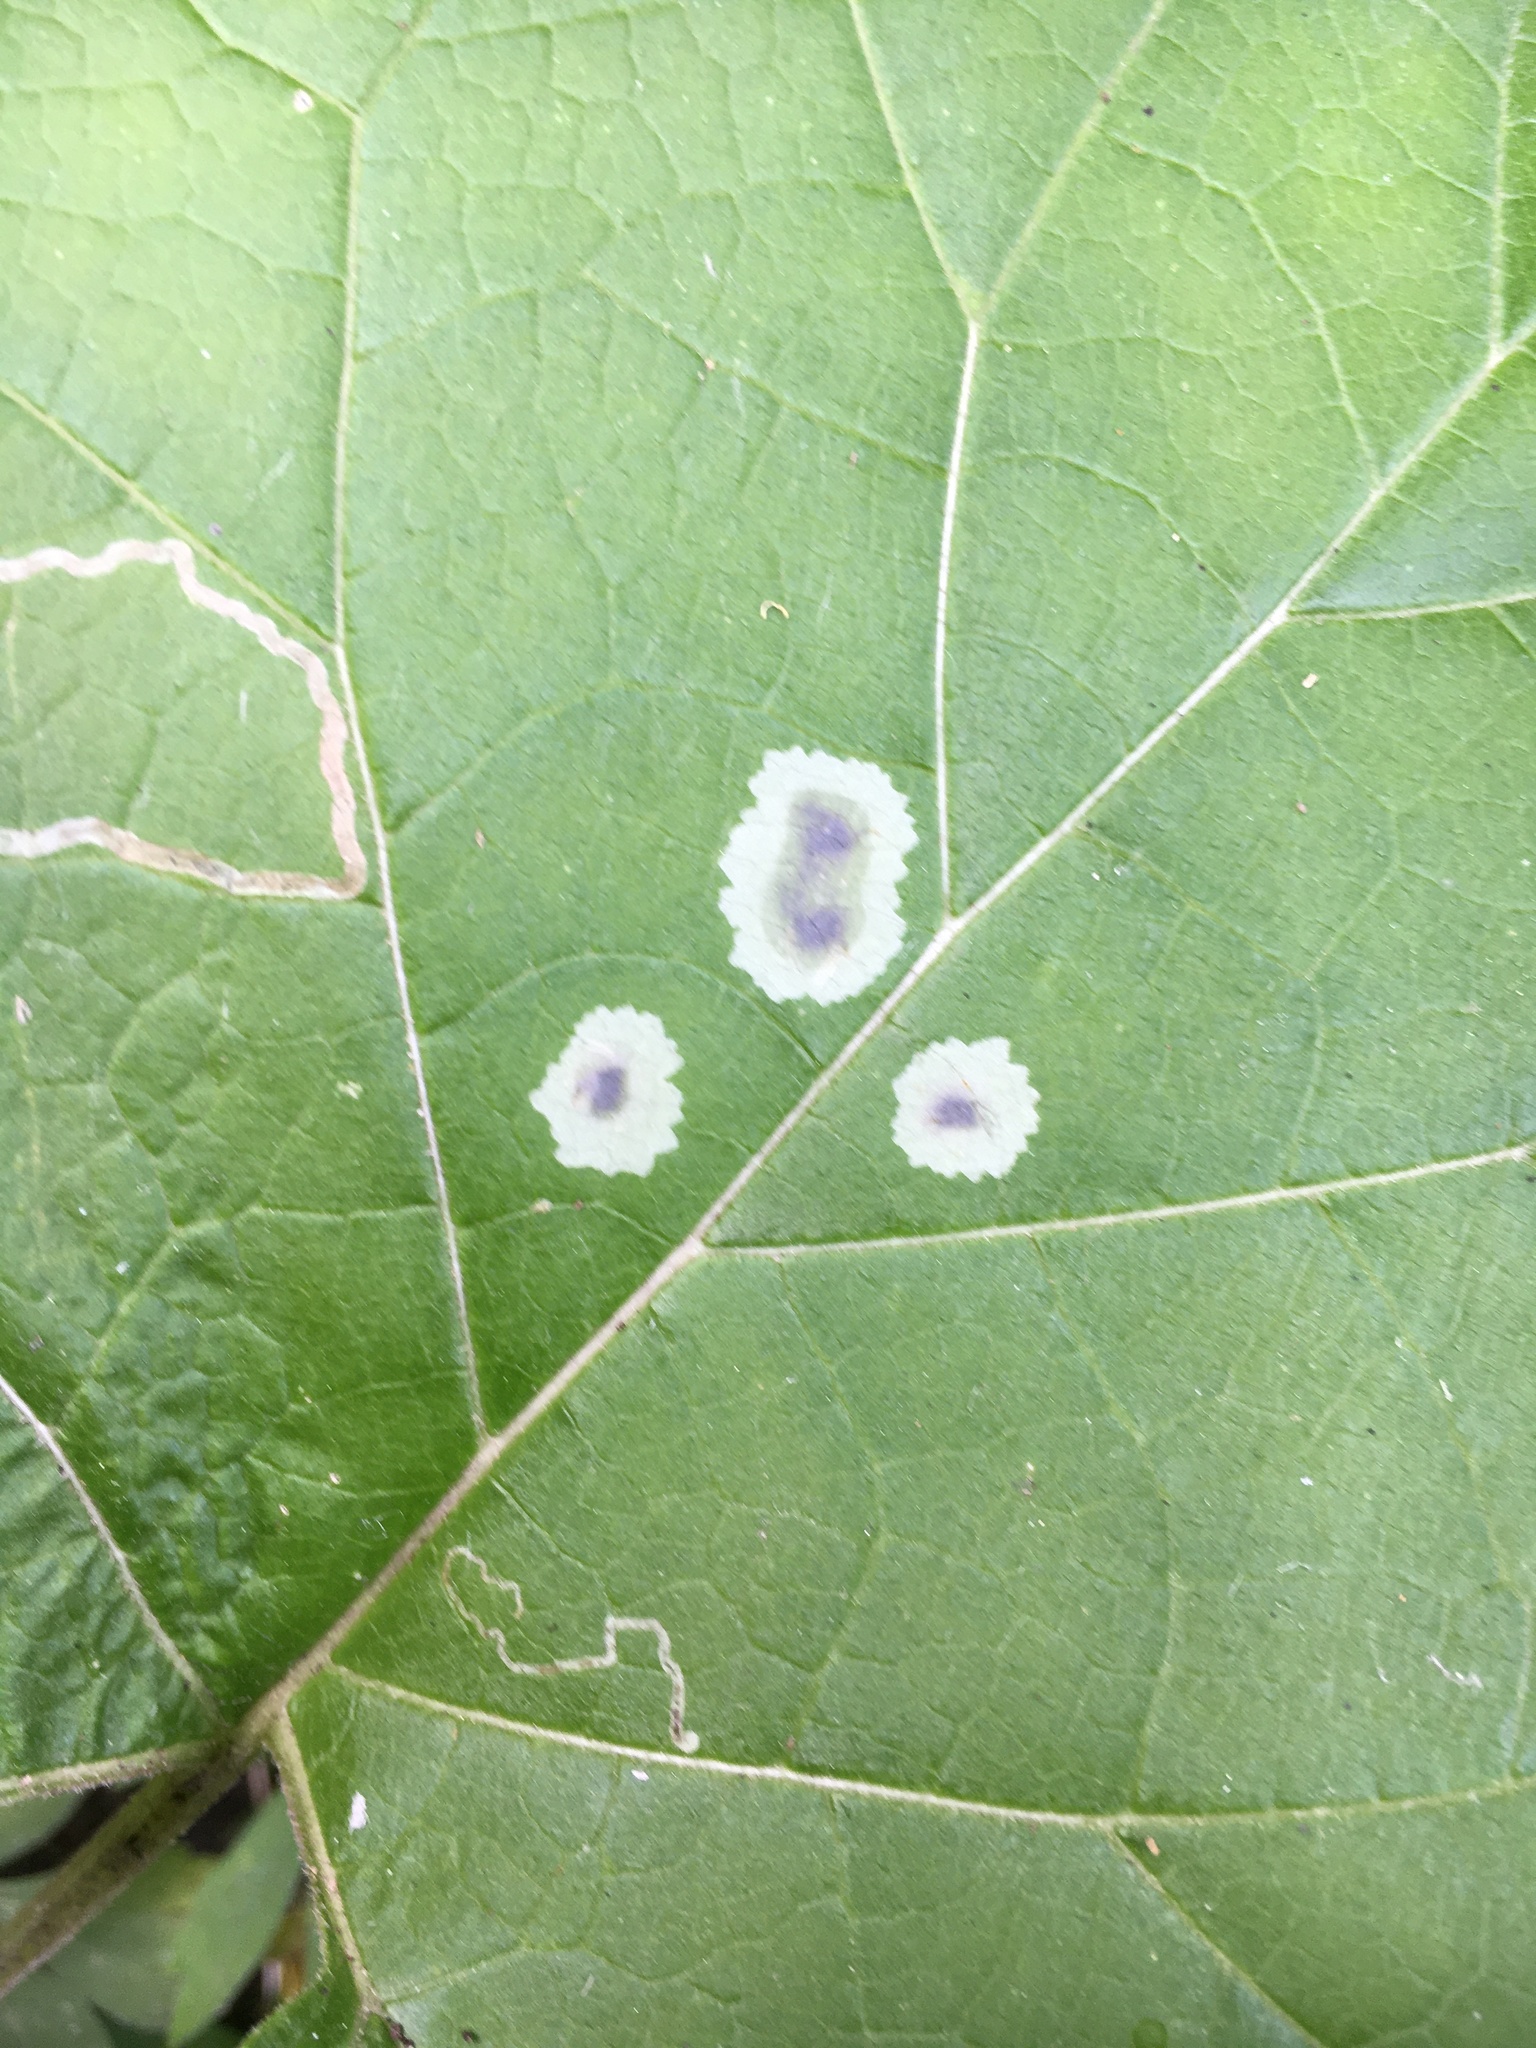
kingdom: Animalia
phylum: Arthropoda
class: Insecta
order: Diptera
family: Agromyzidae
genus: Calycomyza
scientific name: Calycomyza flavinotum
